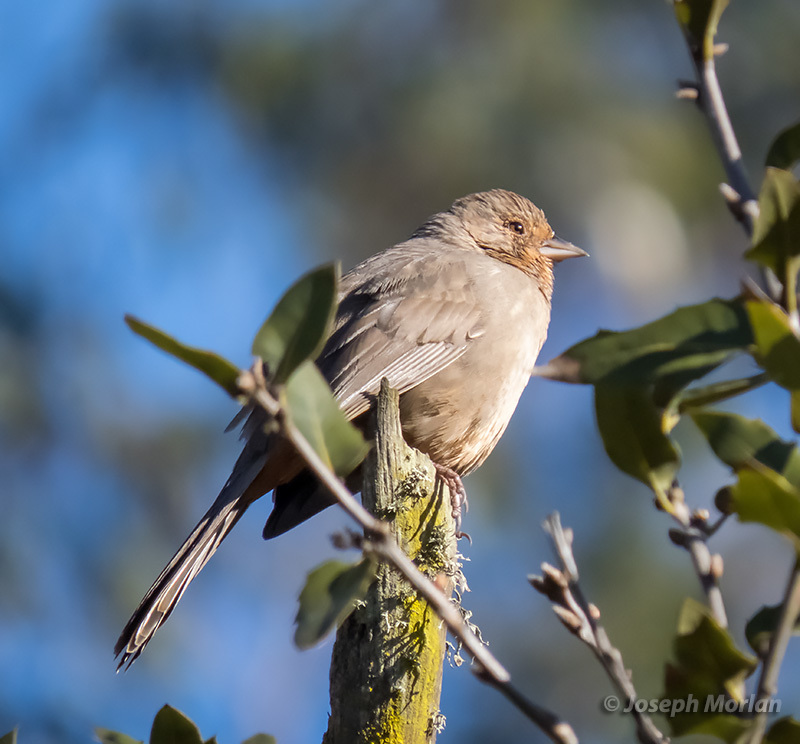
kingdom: Animalia
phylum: Chordata
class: Aves
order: Passeriformes
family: Passerellidae
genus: Melozone
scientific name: Melozone crissalis
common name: California towhee
